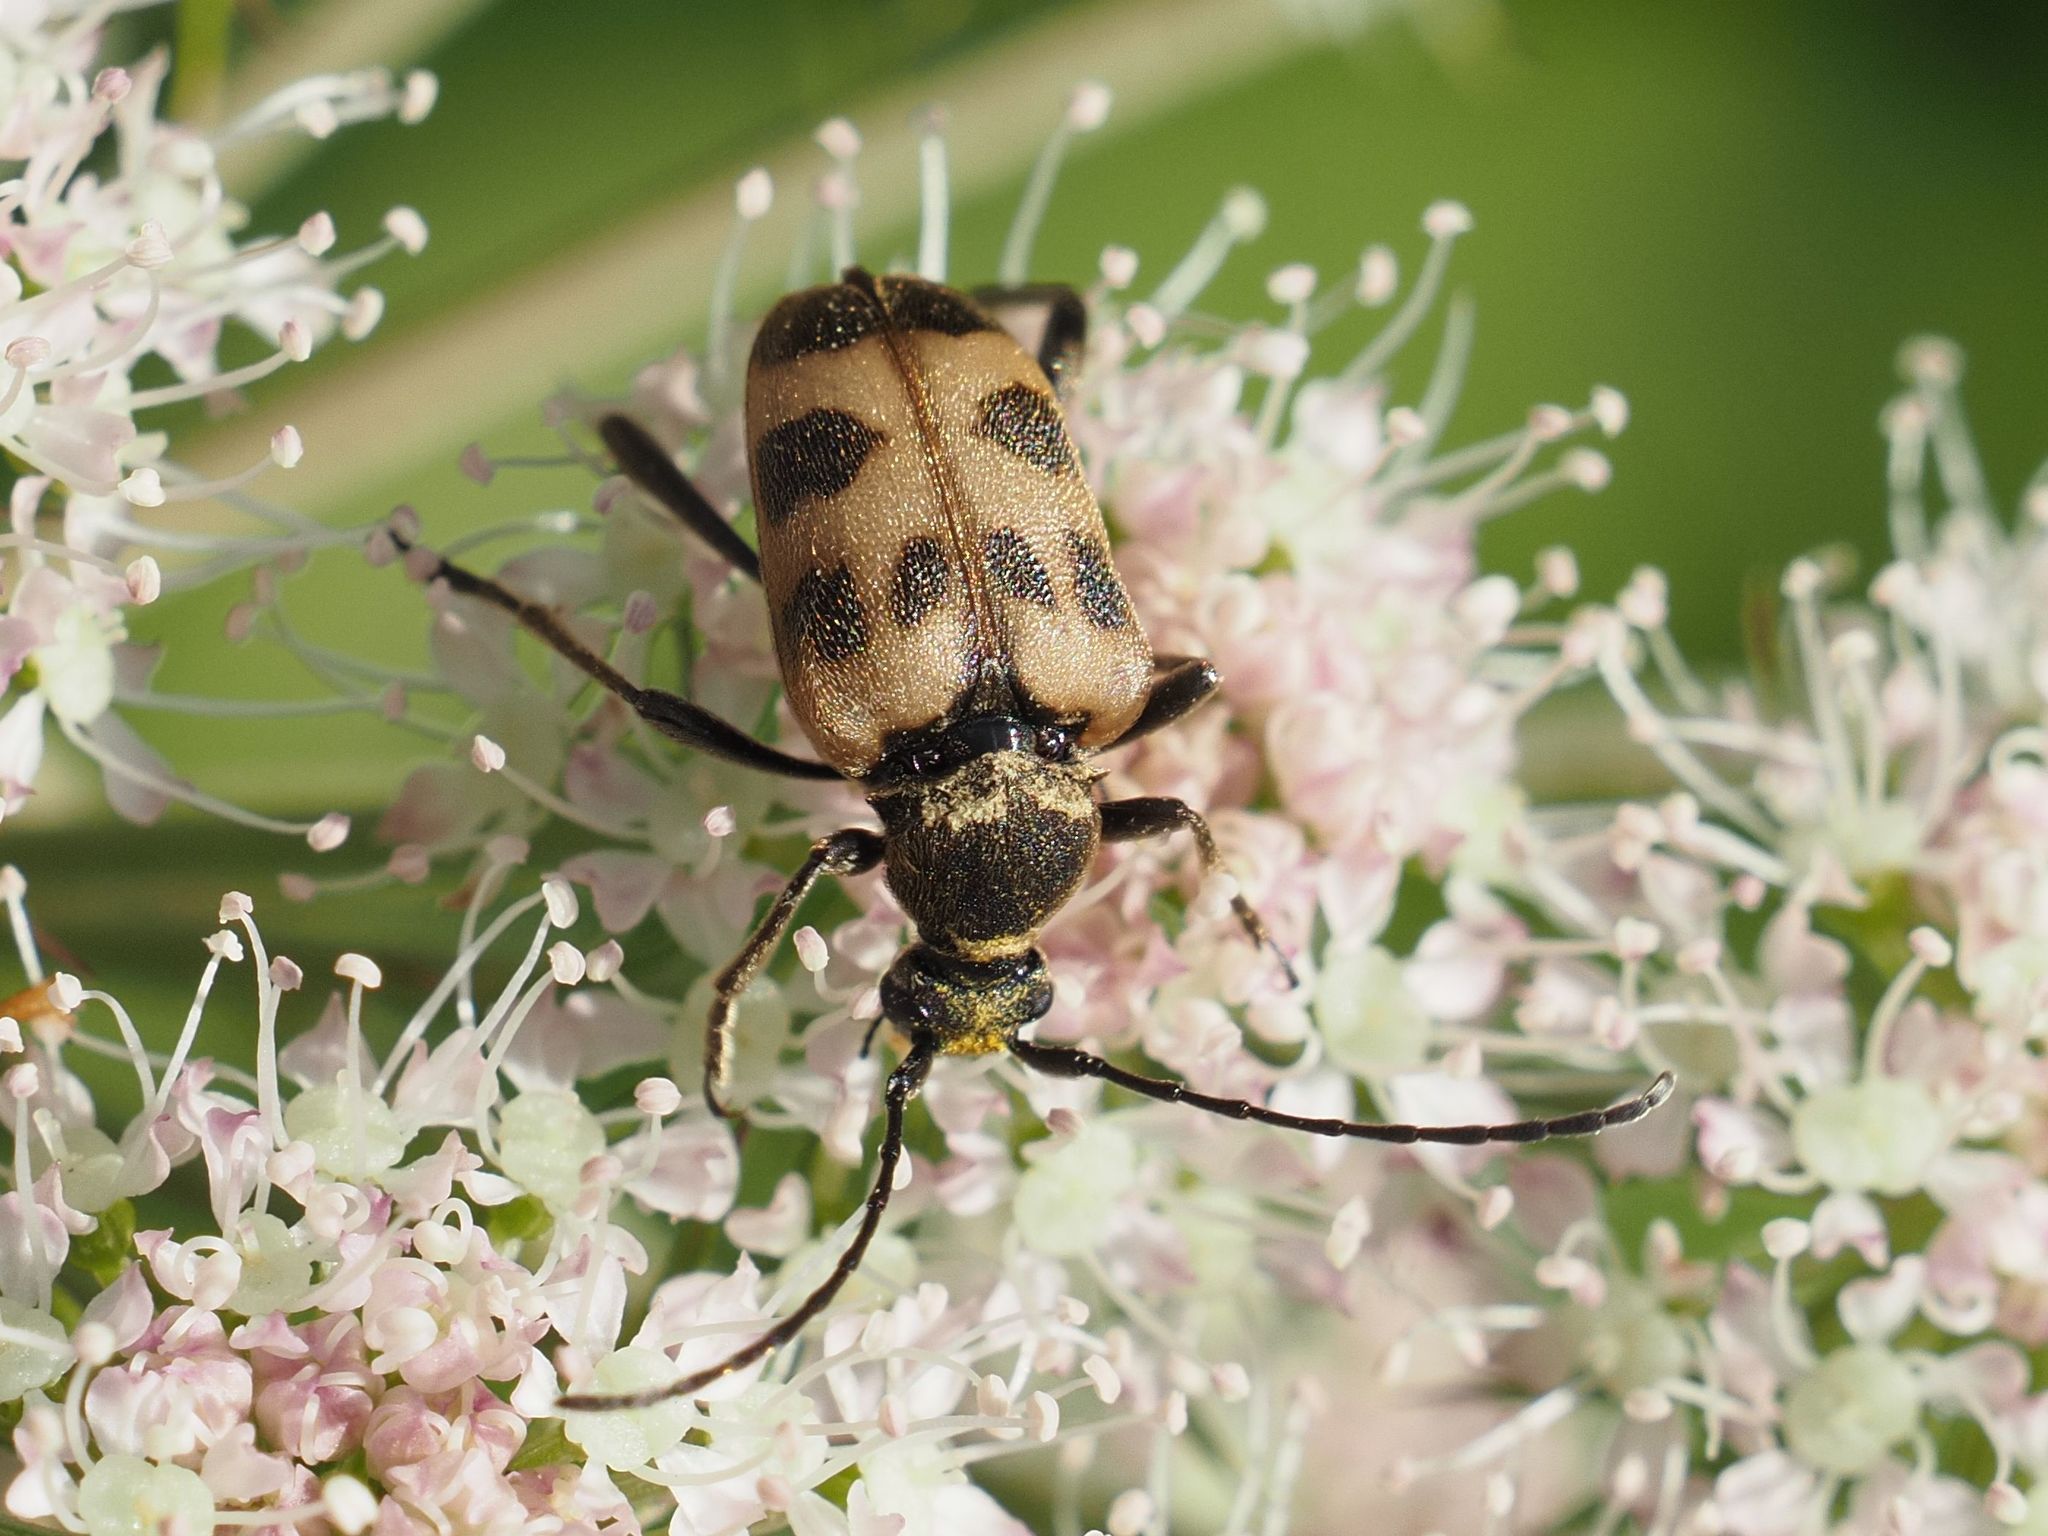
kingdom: Animalia
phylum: Arthropoda
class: Insecta
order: Coleoptera
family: Cerambycidae
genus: Pachytodes
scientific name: Pachytodes cerambyciformis
